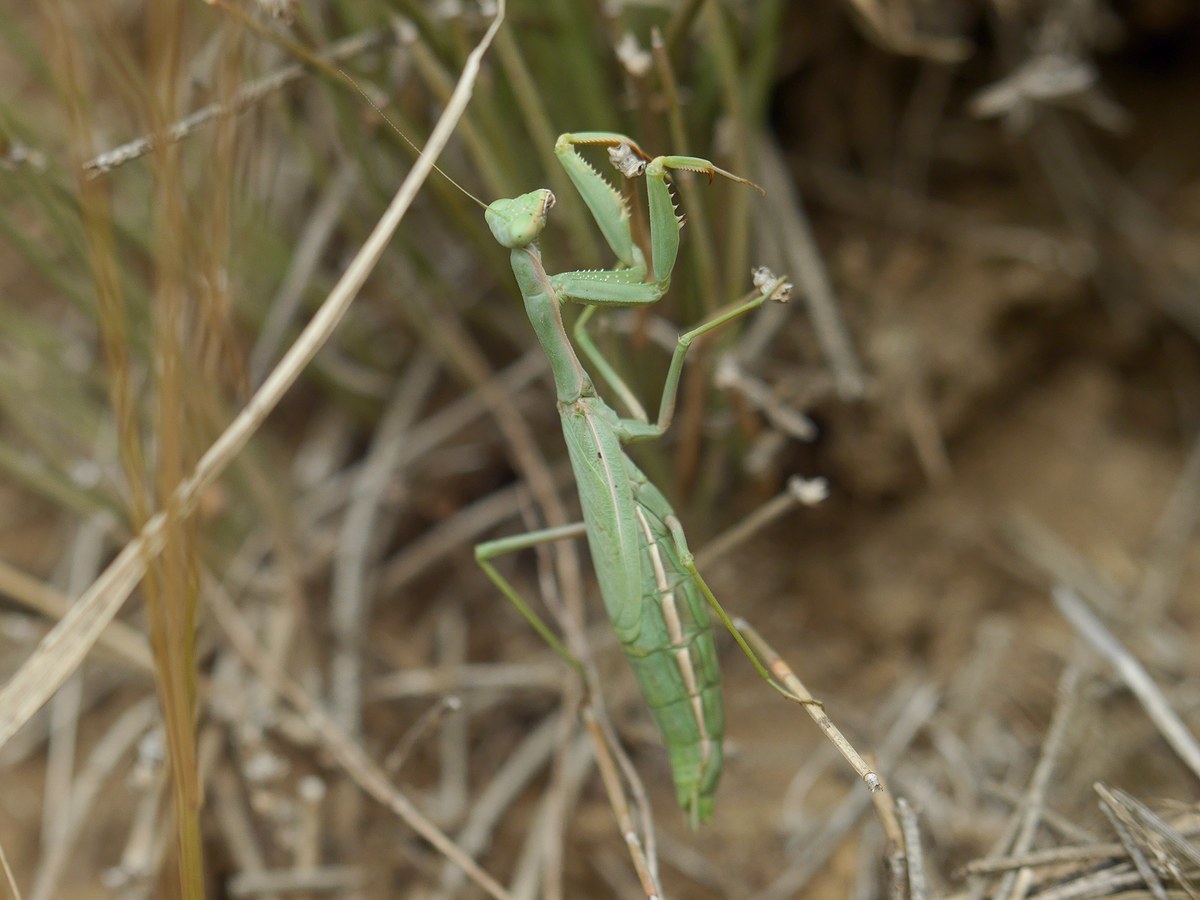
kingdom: Animalia
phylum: Arthropoda
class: Insecta
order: Mantodea
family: Eremiaphilidae
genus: Iris
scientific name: Iris polystictica
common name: Dot-winged mantis
